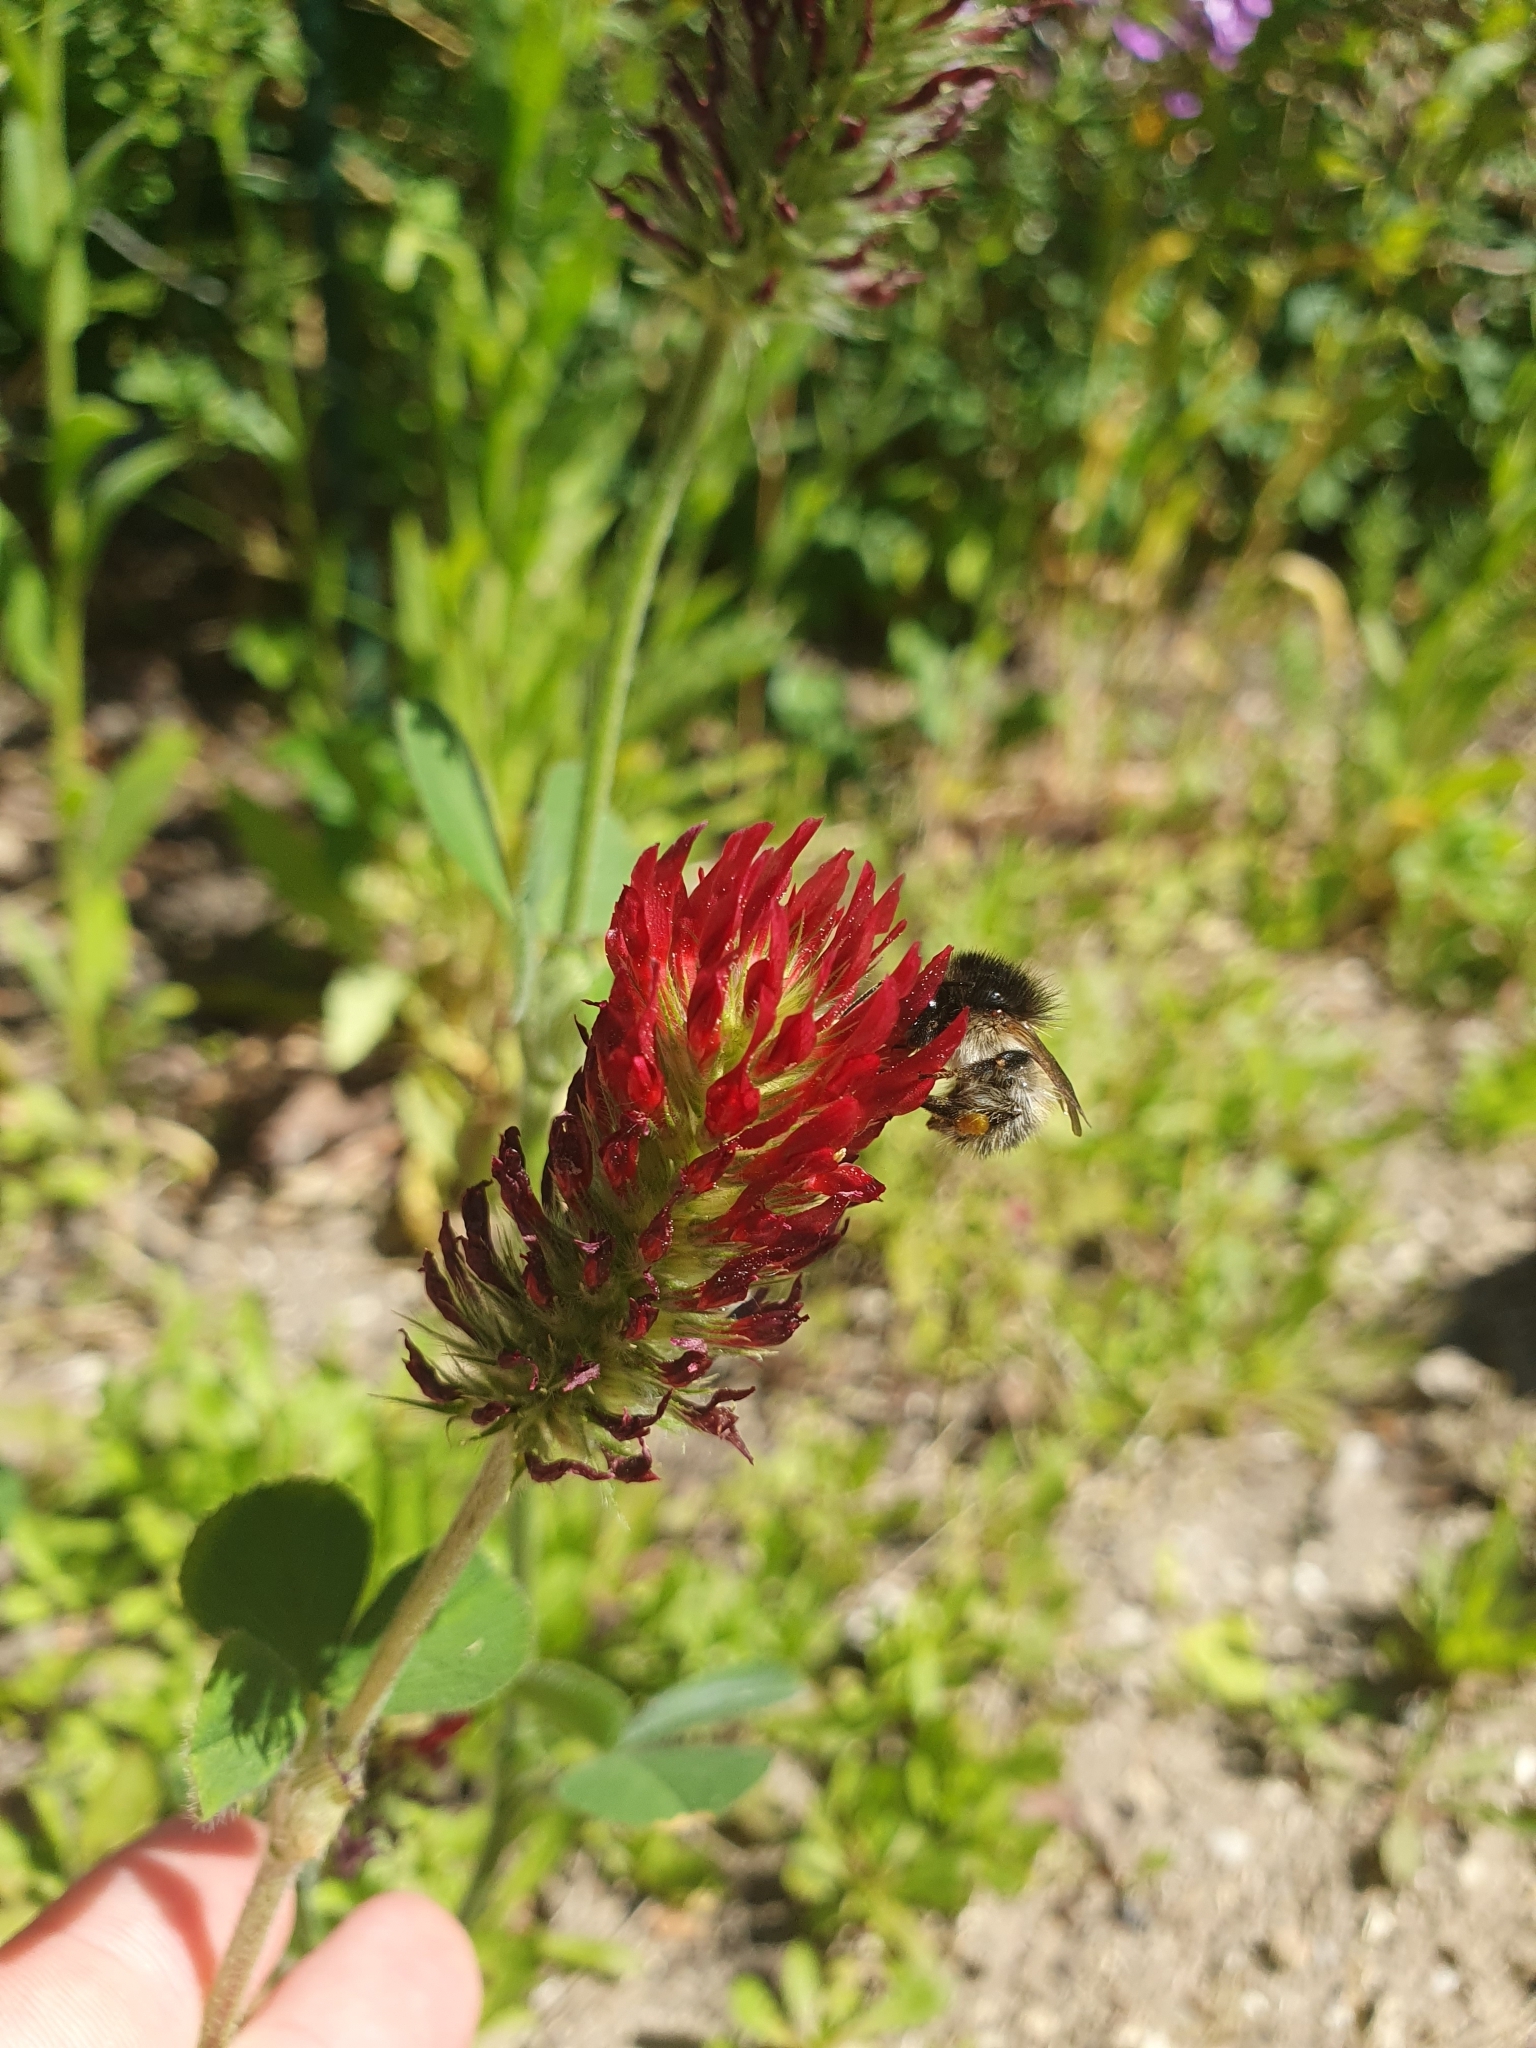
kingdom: Animalia
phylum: Arthropoda
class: Insecta
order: Hymenoptera
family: Apidae
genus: Bombus
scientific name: Bombus pascuorum
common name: Common carder bee
